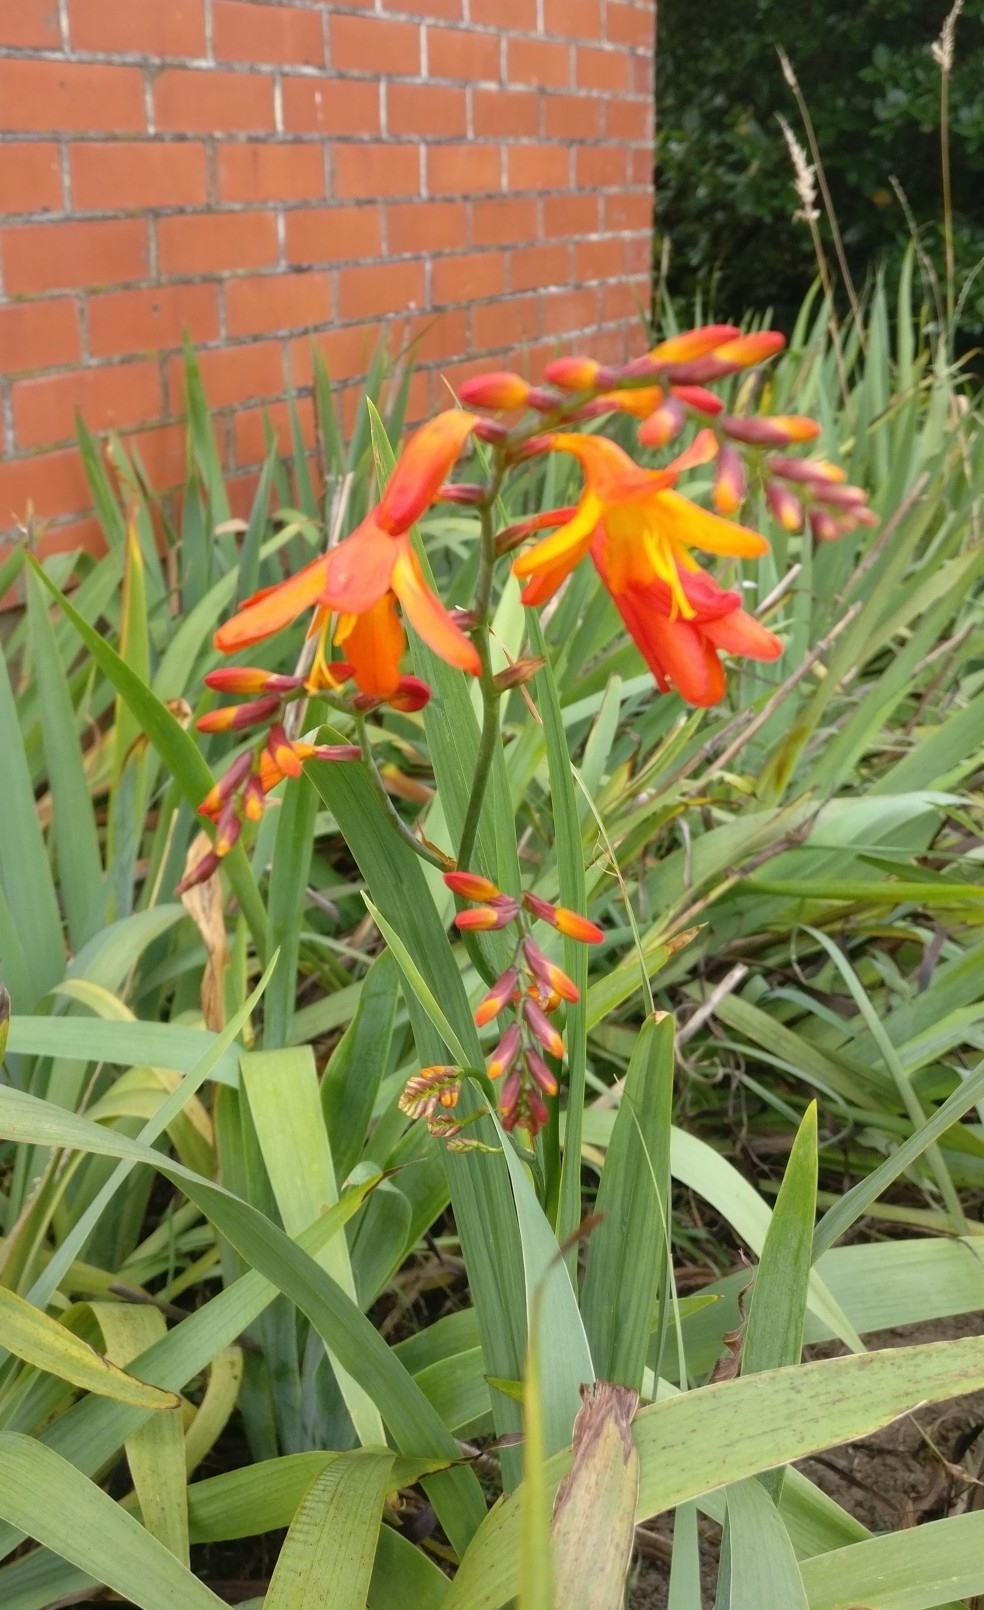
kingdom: Plantae
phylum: Tracheophyta
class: Liliopsida
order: Asparagales
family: Iridaceae
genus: Crocosmia
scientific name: Crocosmia crocosmiiflora
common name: Montbretia
